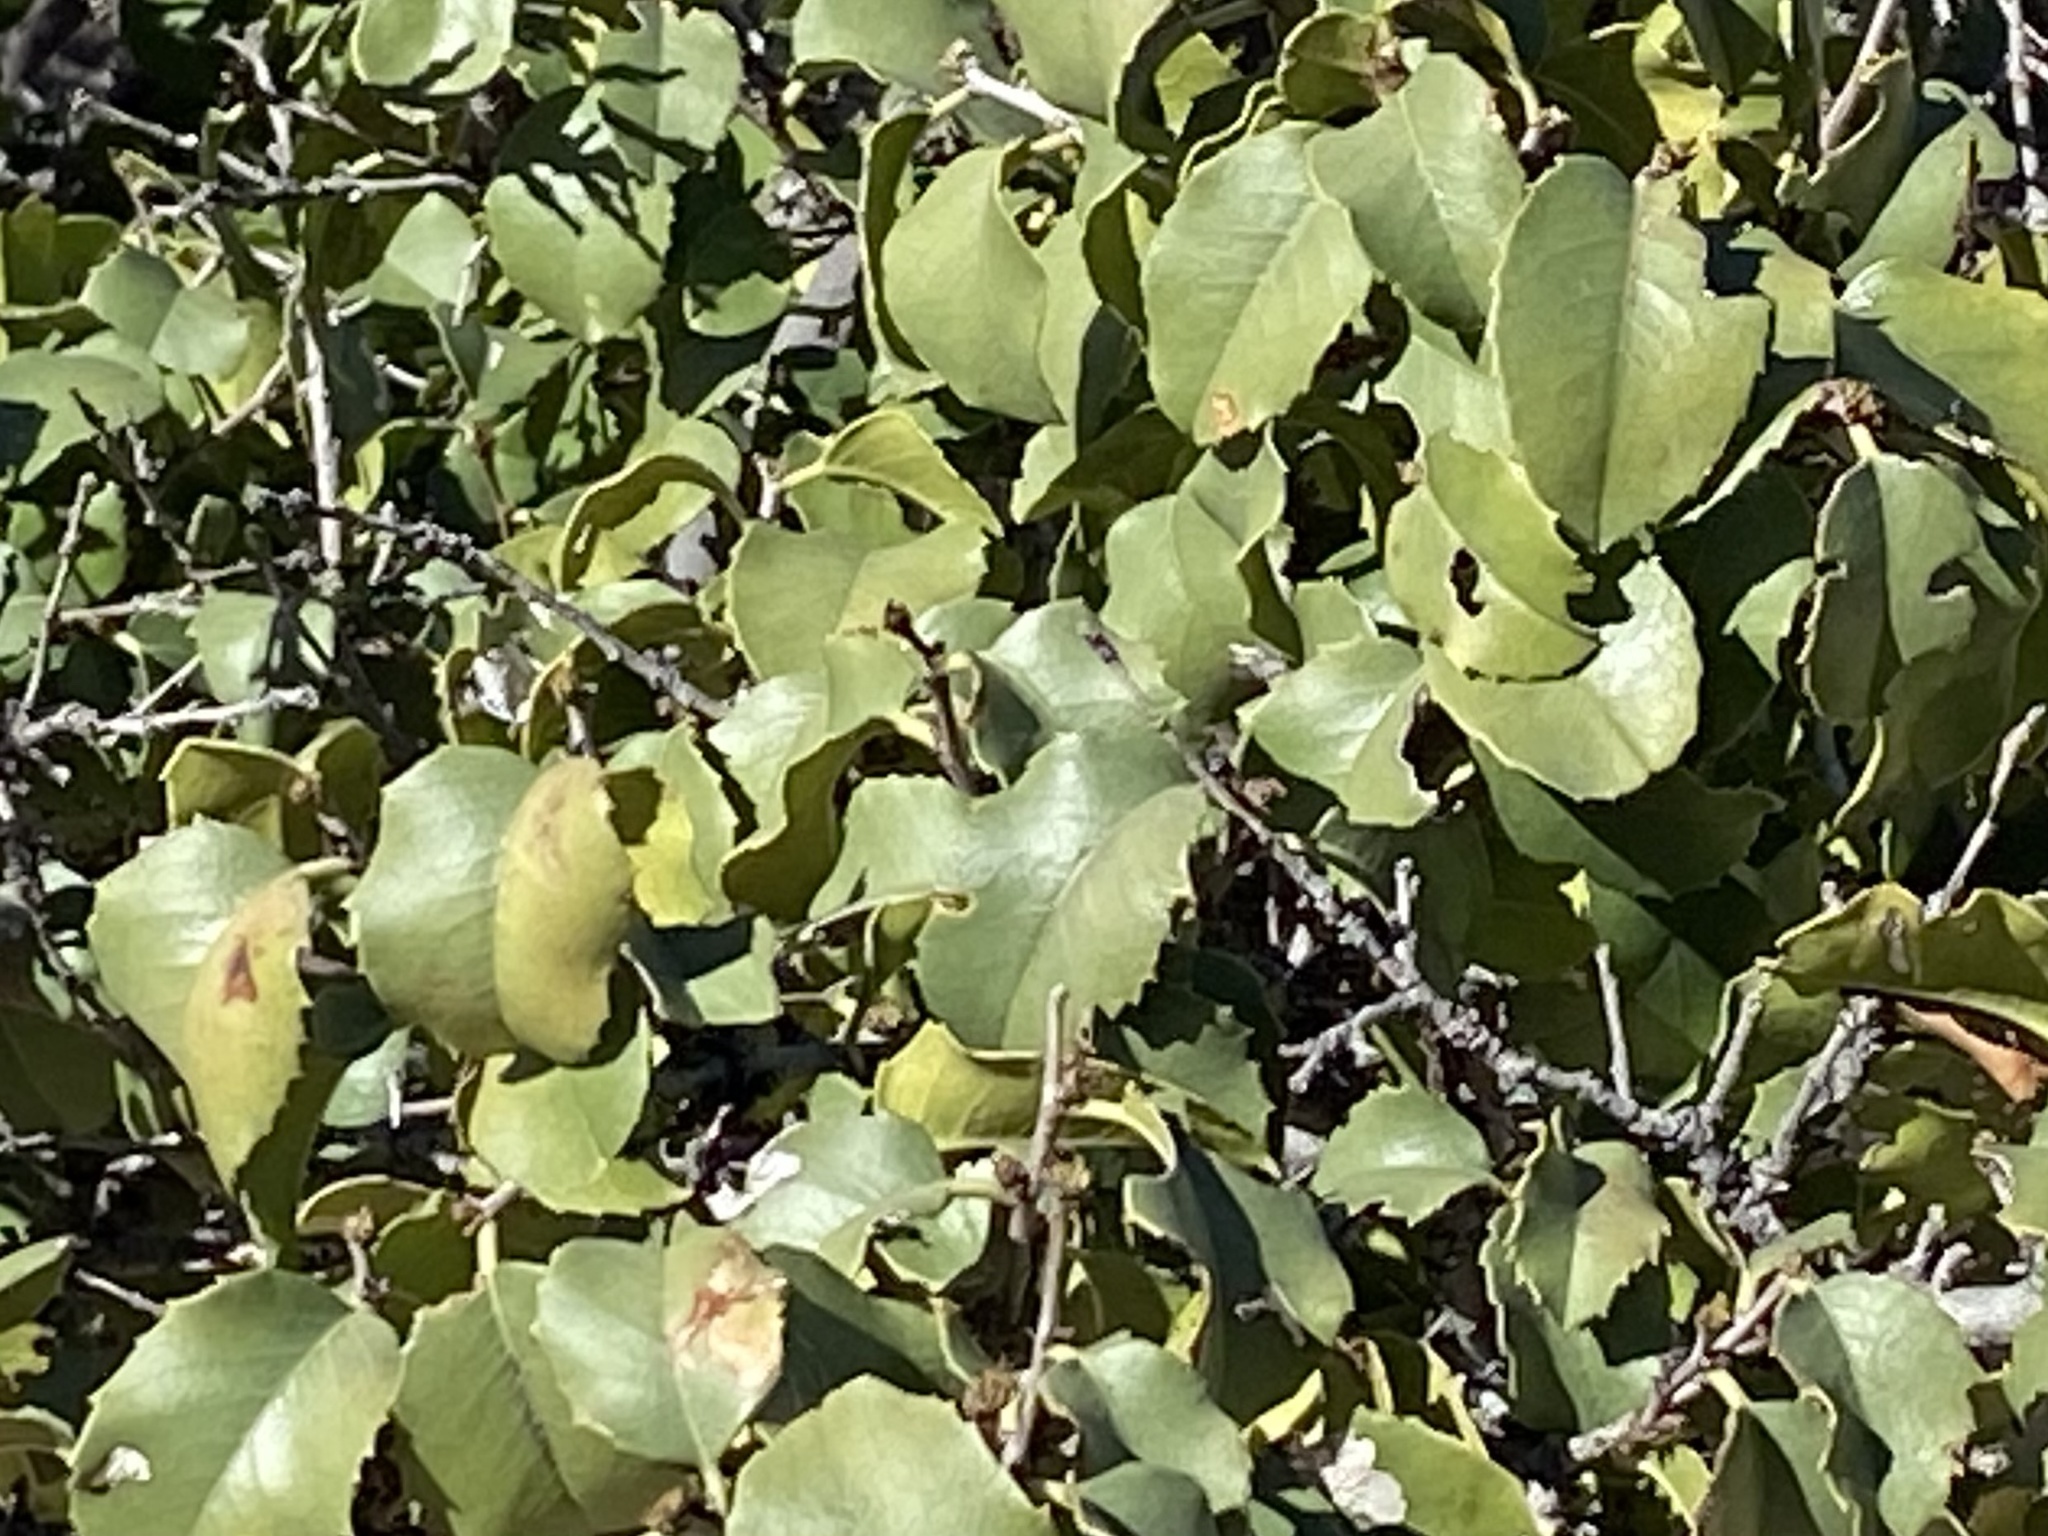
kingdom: Plantae
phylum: Tracheophyta
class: Magnoliopsida
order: Rosales
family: Rosaceae
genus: Prunus
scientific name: Prunus ilicifolia
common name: Hollyleaf cherry
